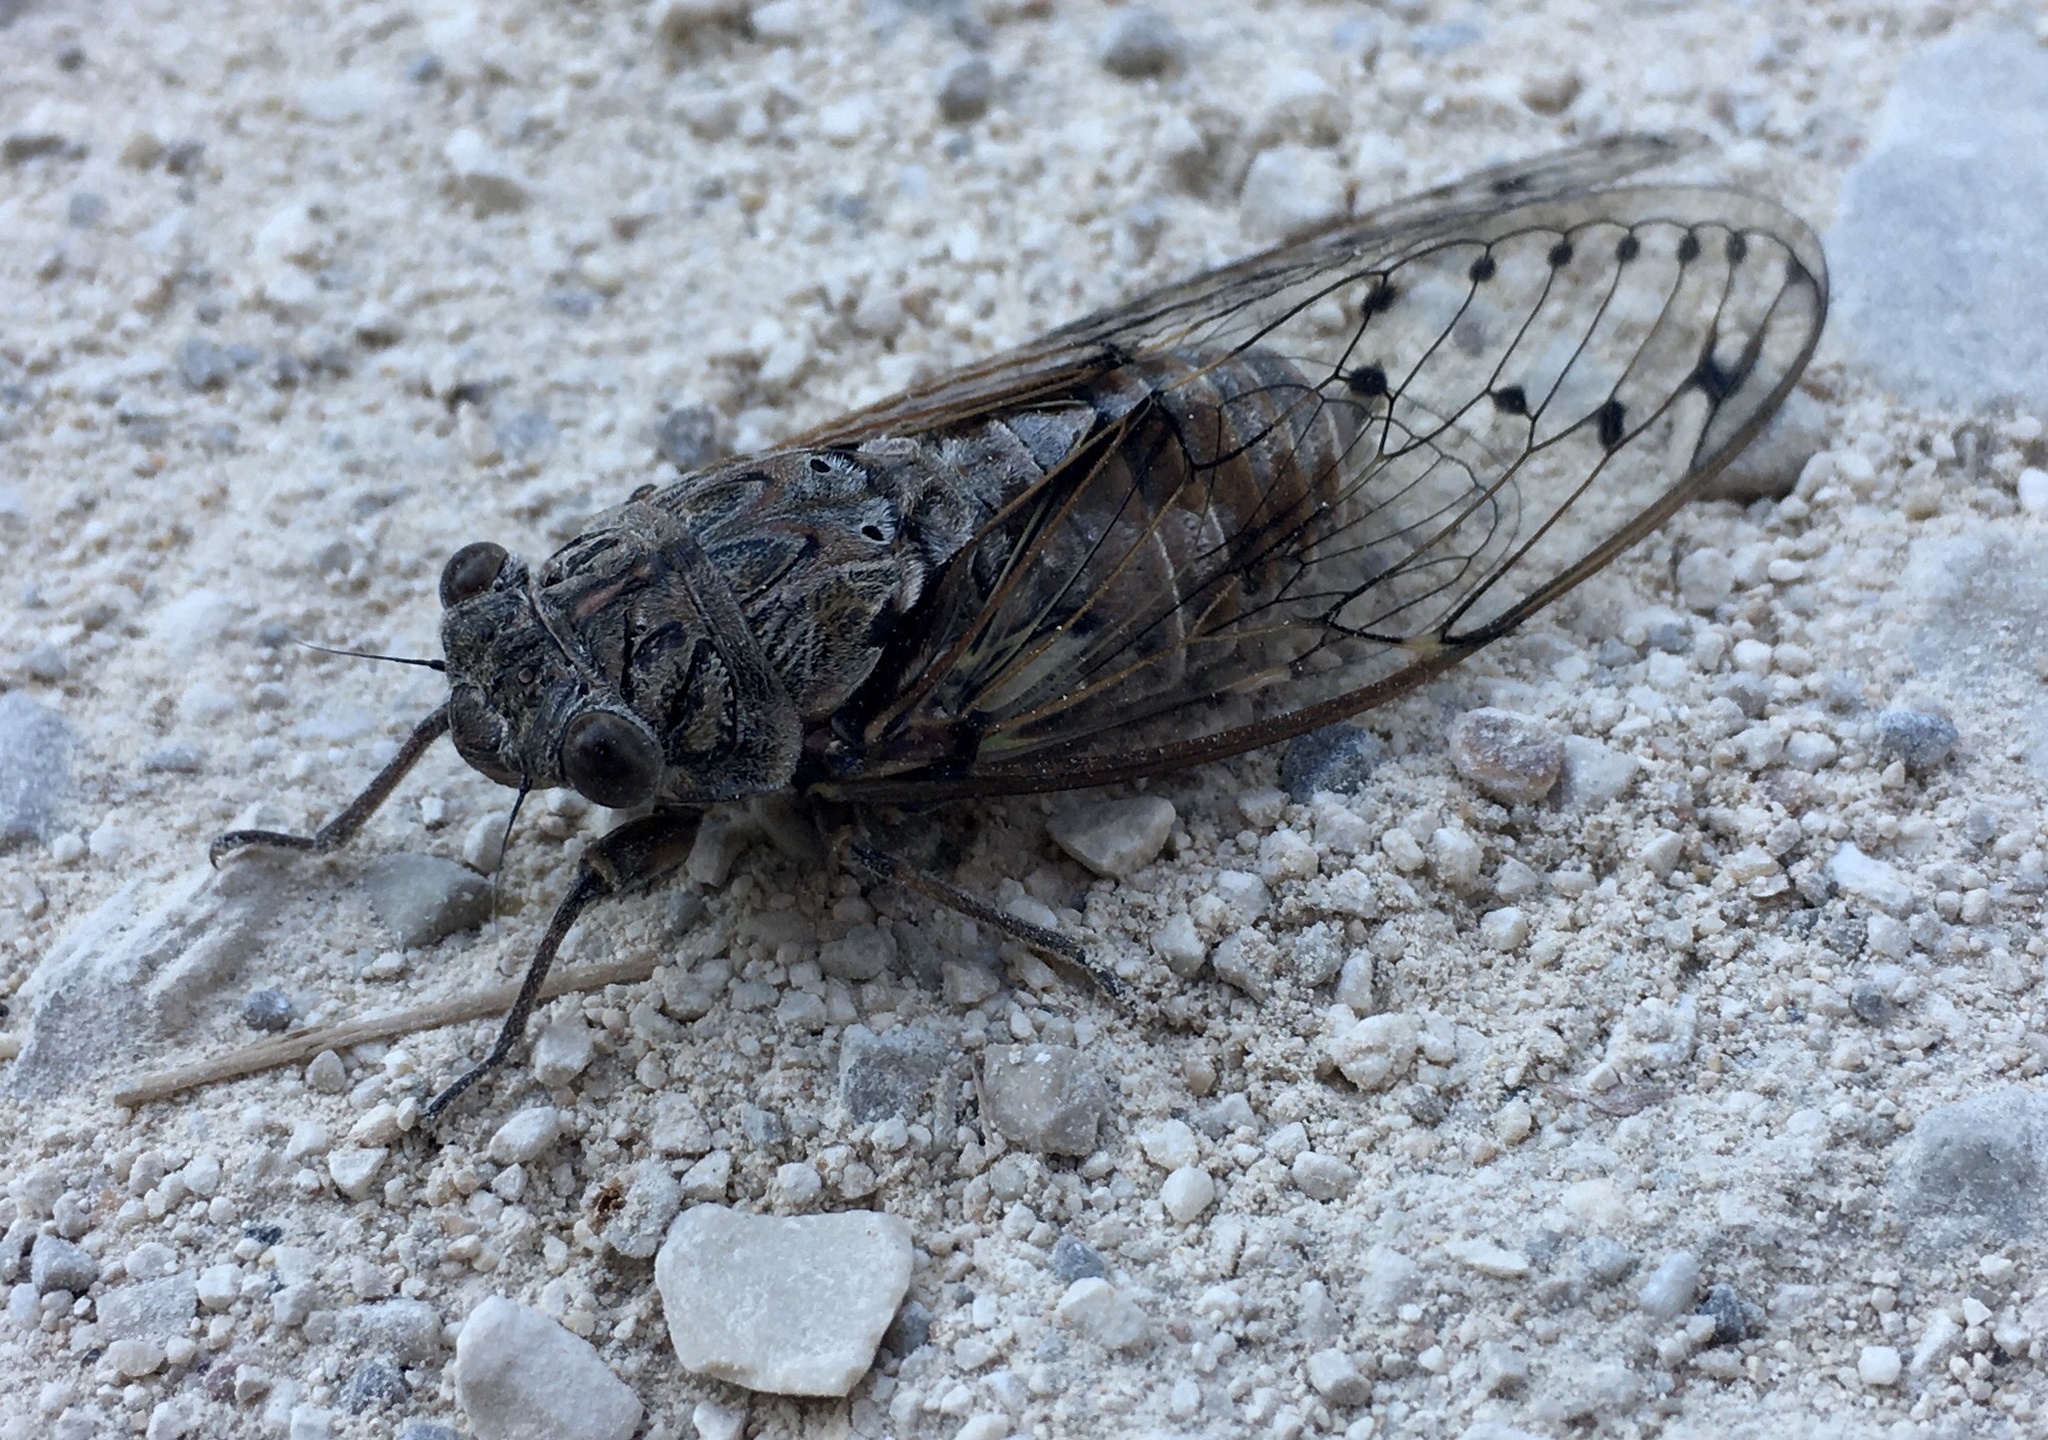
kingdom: Animalia
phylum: Arthropoda
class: Insecta
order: Hemiptera
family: Cicadidae
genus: Cicada
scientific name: Cicada orni
